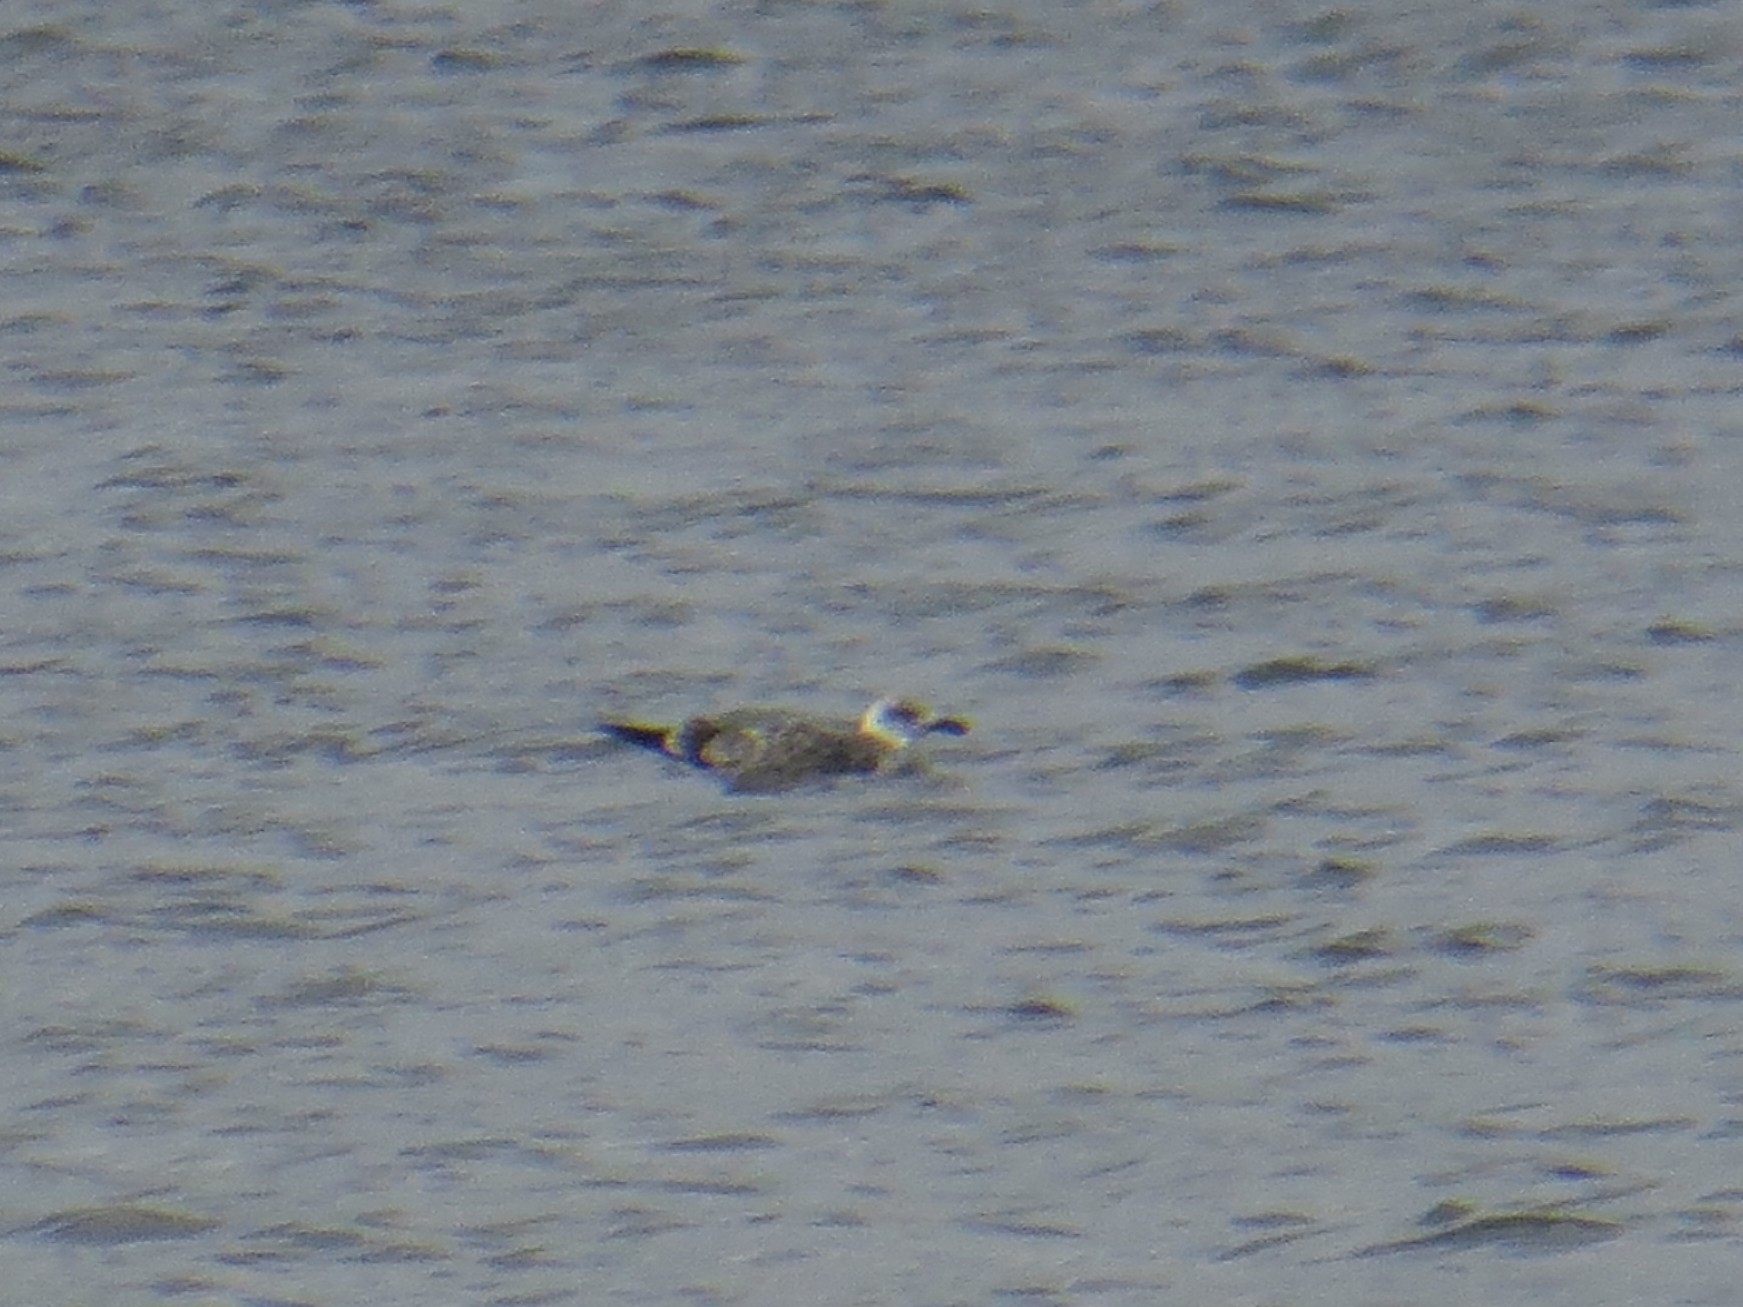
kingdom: Animalia
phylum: Chordata
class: Aves
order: Charadriiformes
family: Laridae
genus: Larus
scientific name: Larus fuscus
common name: Lesser black-backed gull
